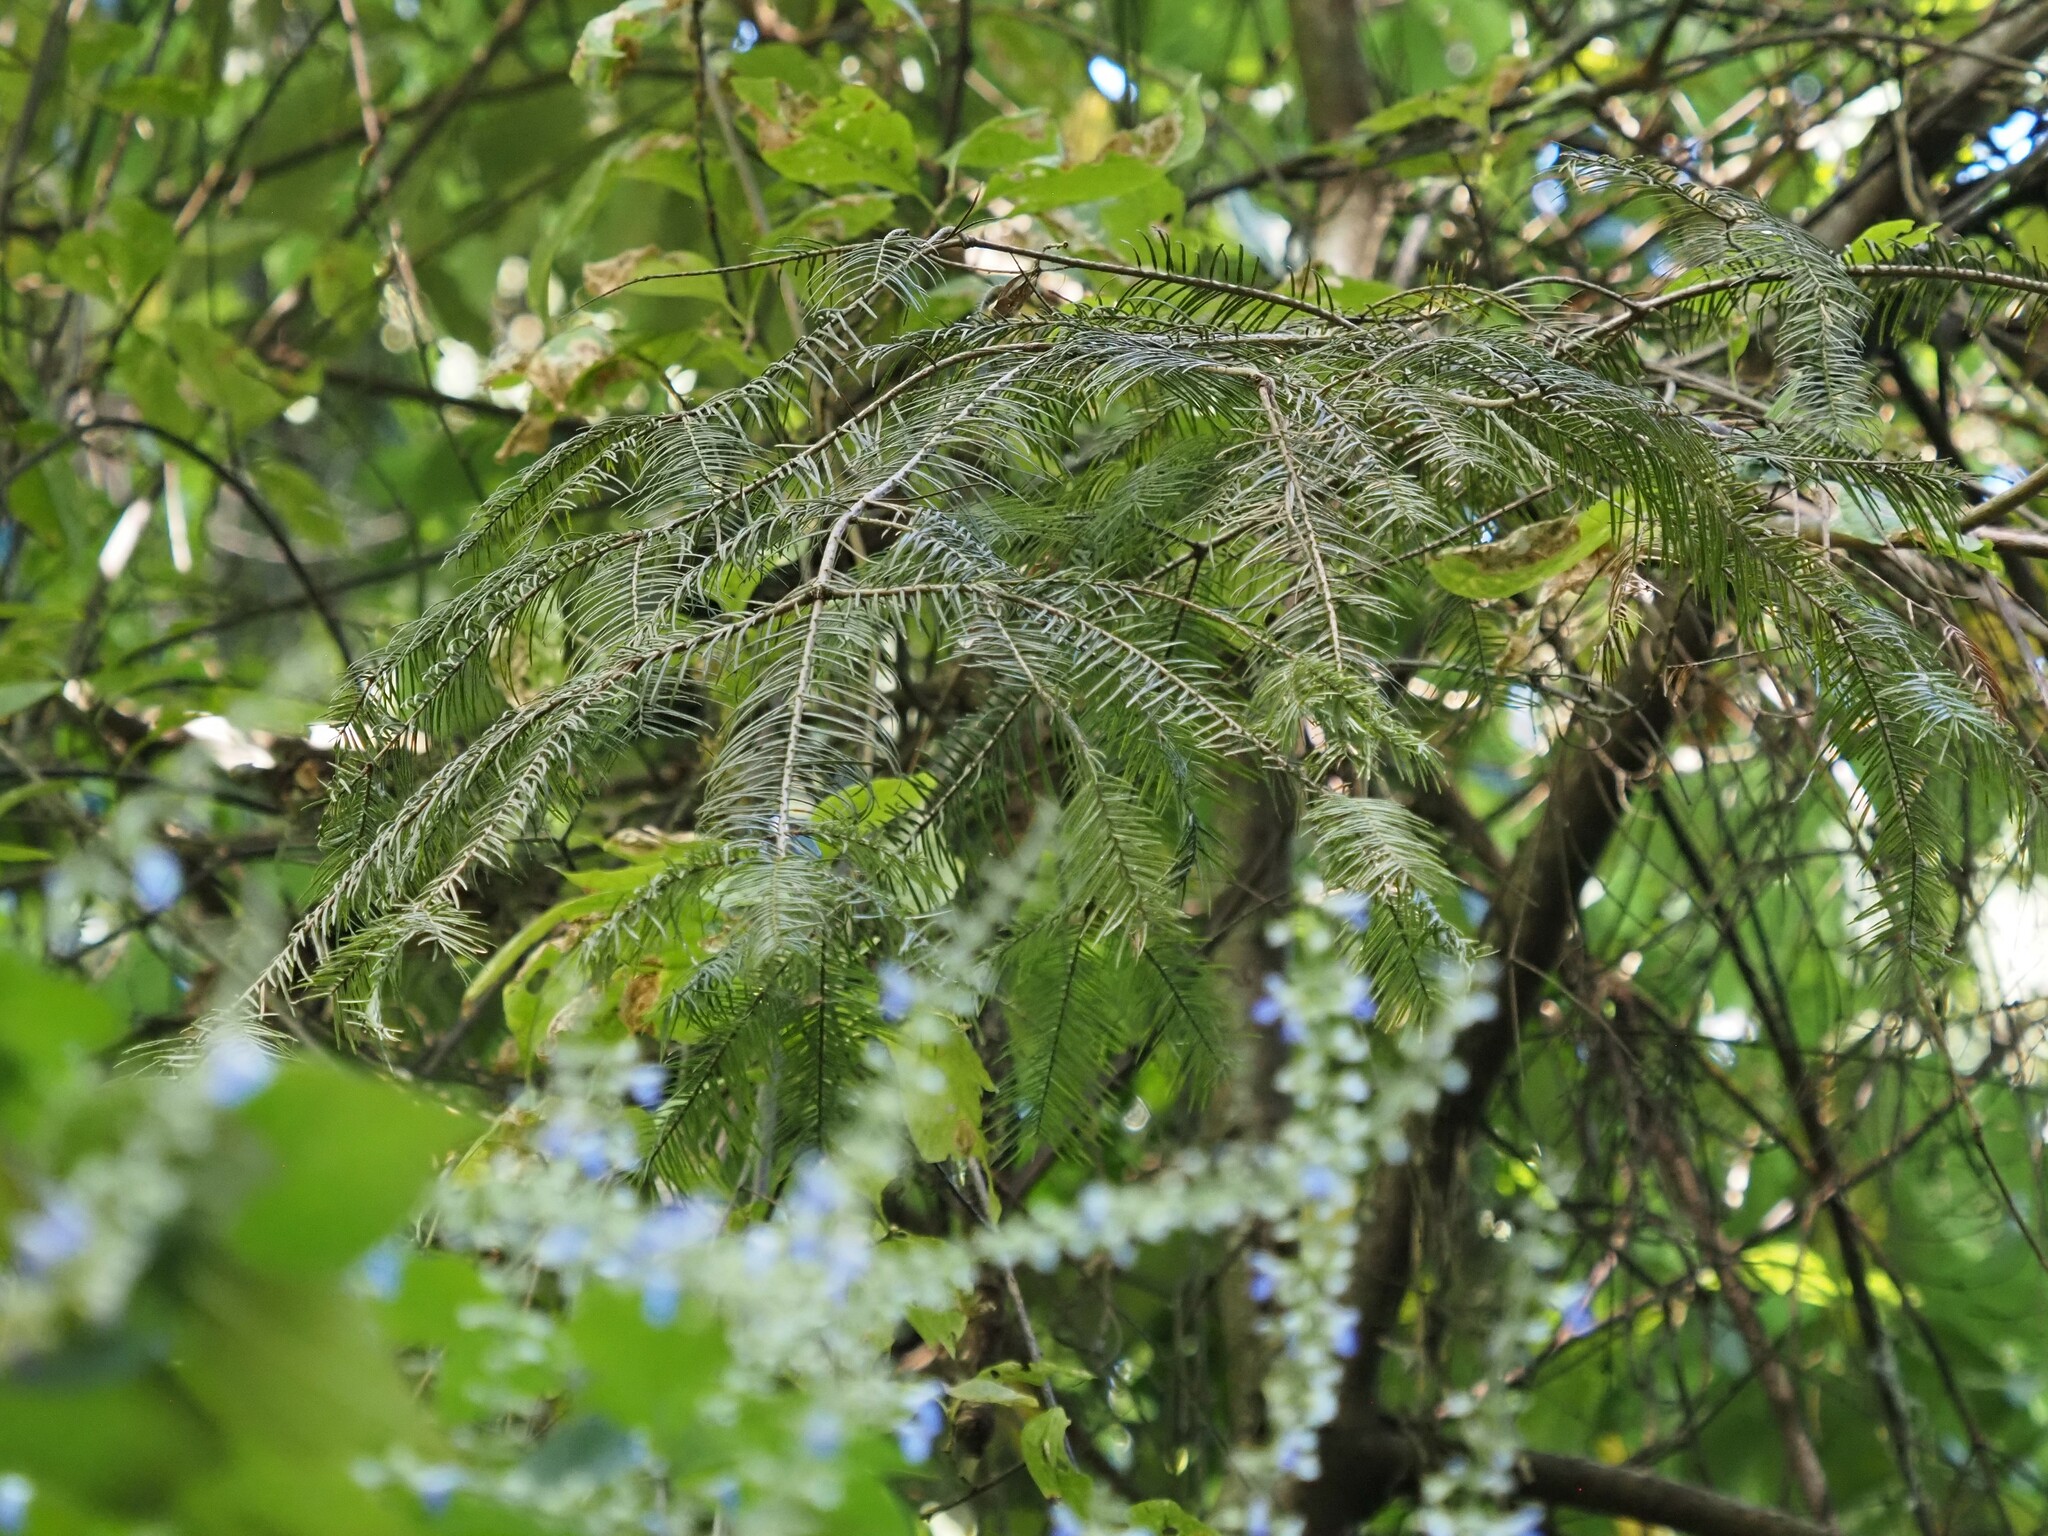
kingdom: Plantae
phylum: Tracheophyta
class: Pinopsida
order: Pinales
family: Pinaceae
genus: Abies
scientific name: Abies guatemalensis
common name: Guatemalan fir
